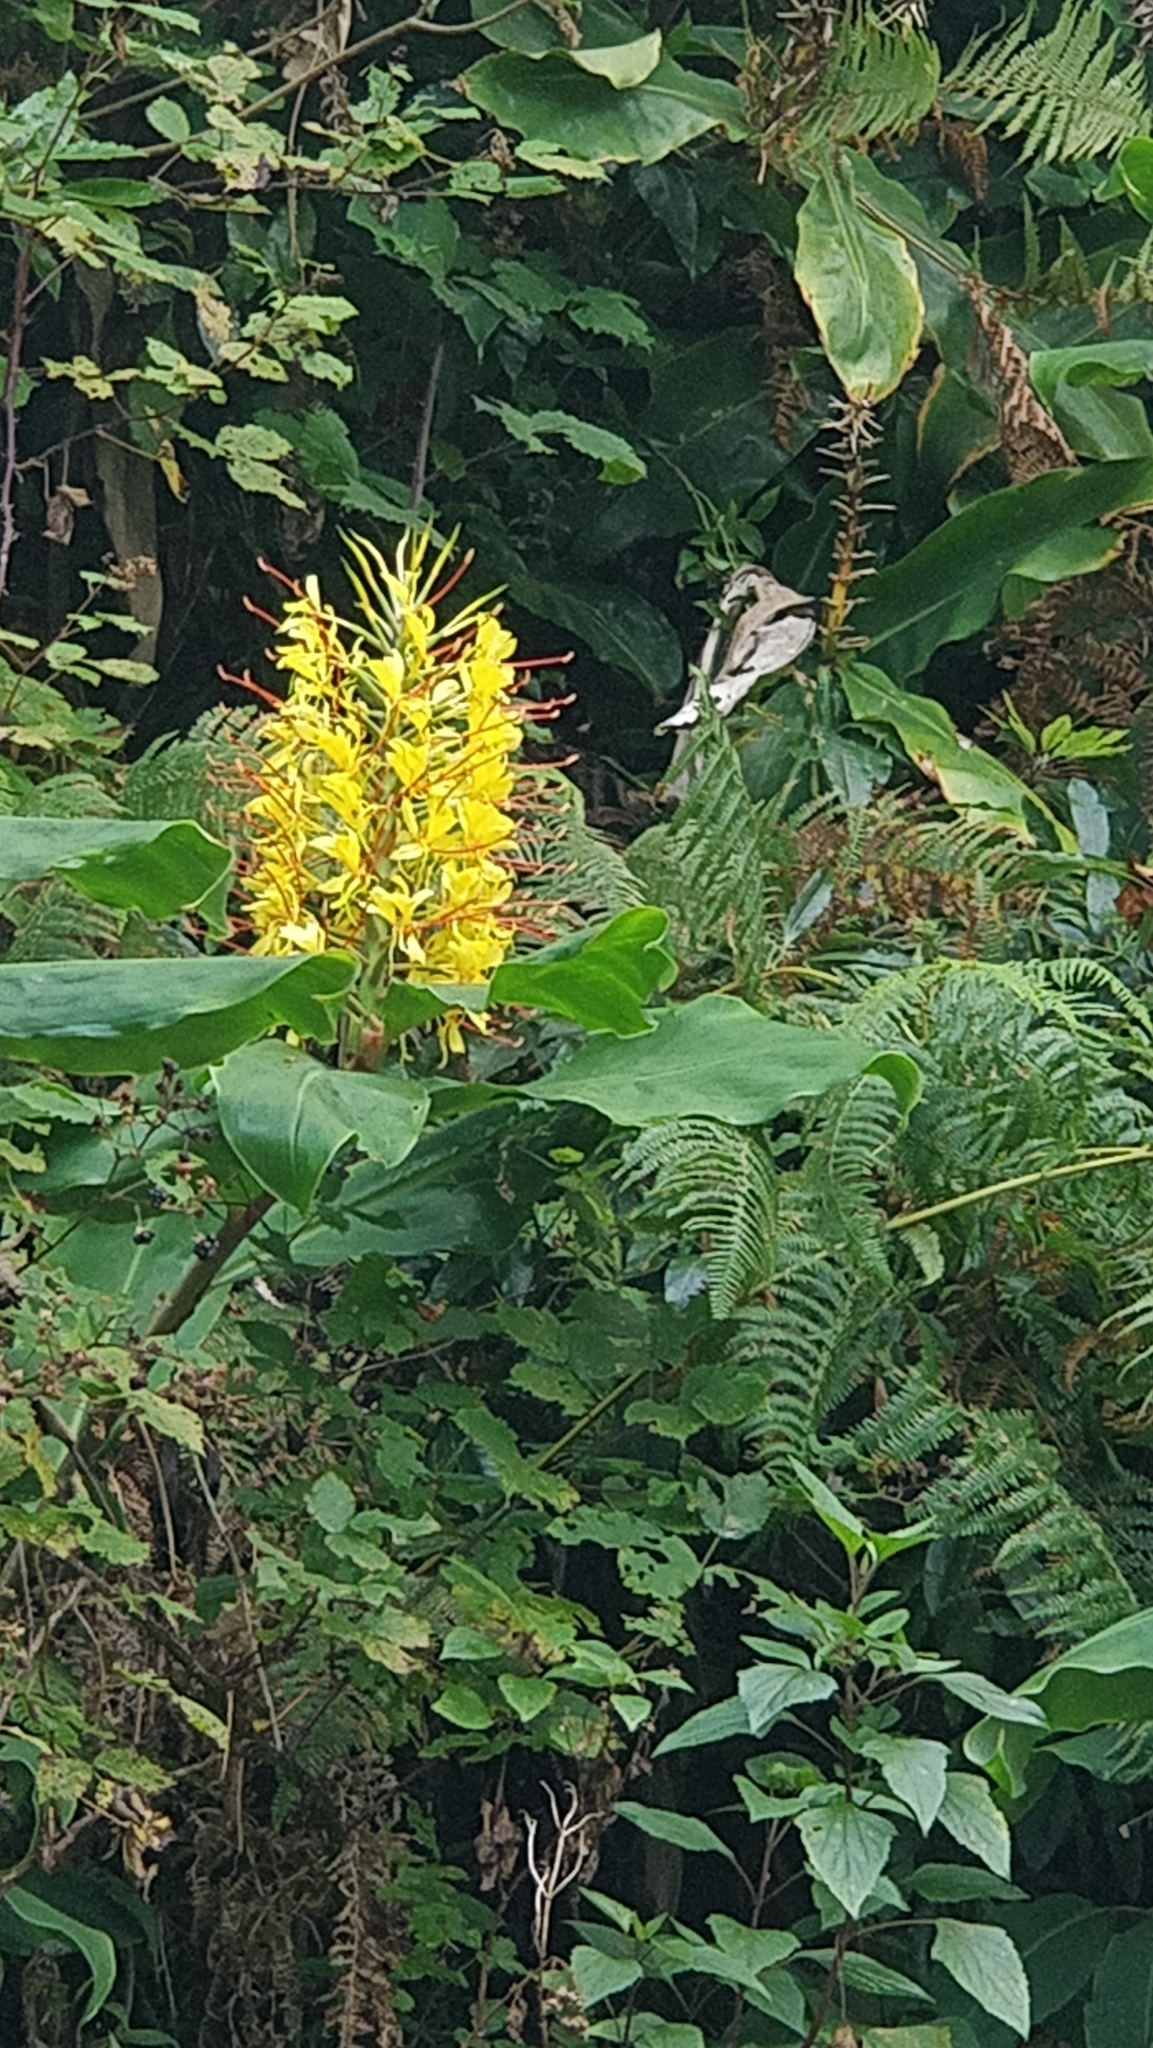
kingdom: Plantae
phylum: Tracheophyta
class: Liliopsida
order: Zingiberales
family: Zingiberaceae
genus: Hedychium
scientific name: Hedychium gardnerianum
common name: Himalayan ginger
